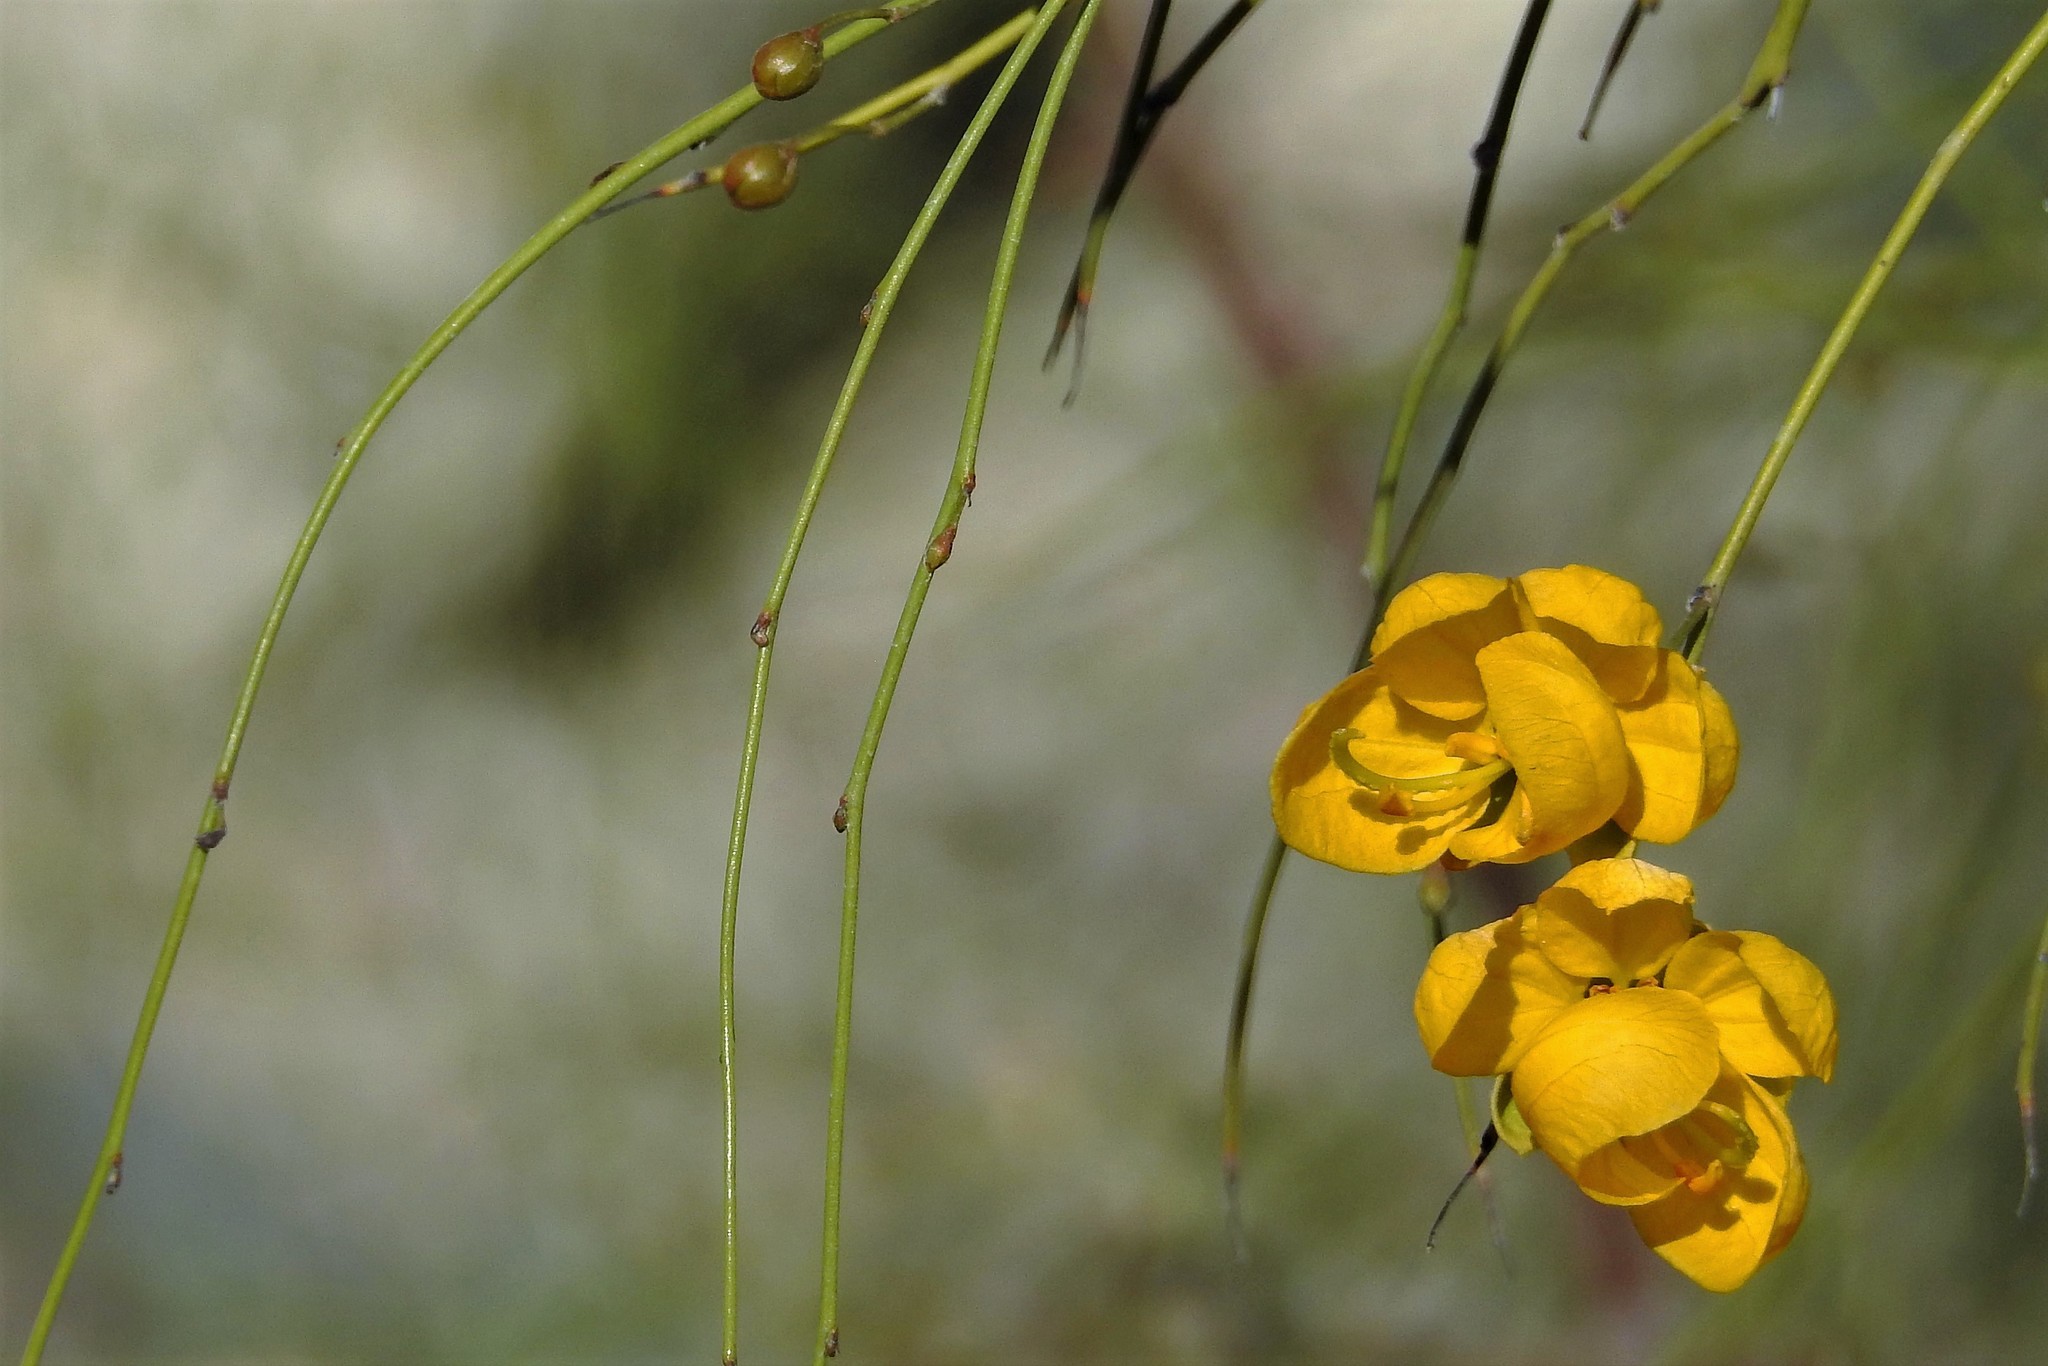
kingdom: Plantae
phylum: Tracheophyta
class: Magnoliopsida
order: Fabales
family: Fabaceae
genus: Senna
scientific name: Senna aphylla
